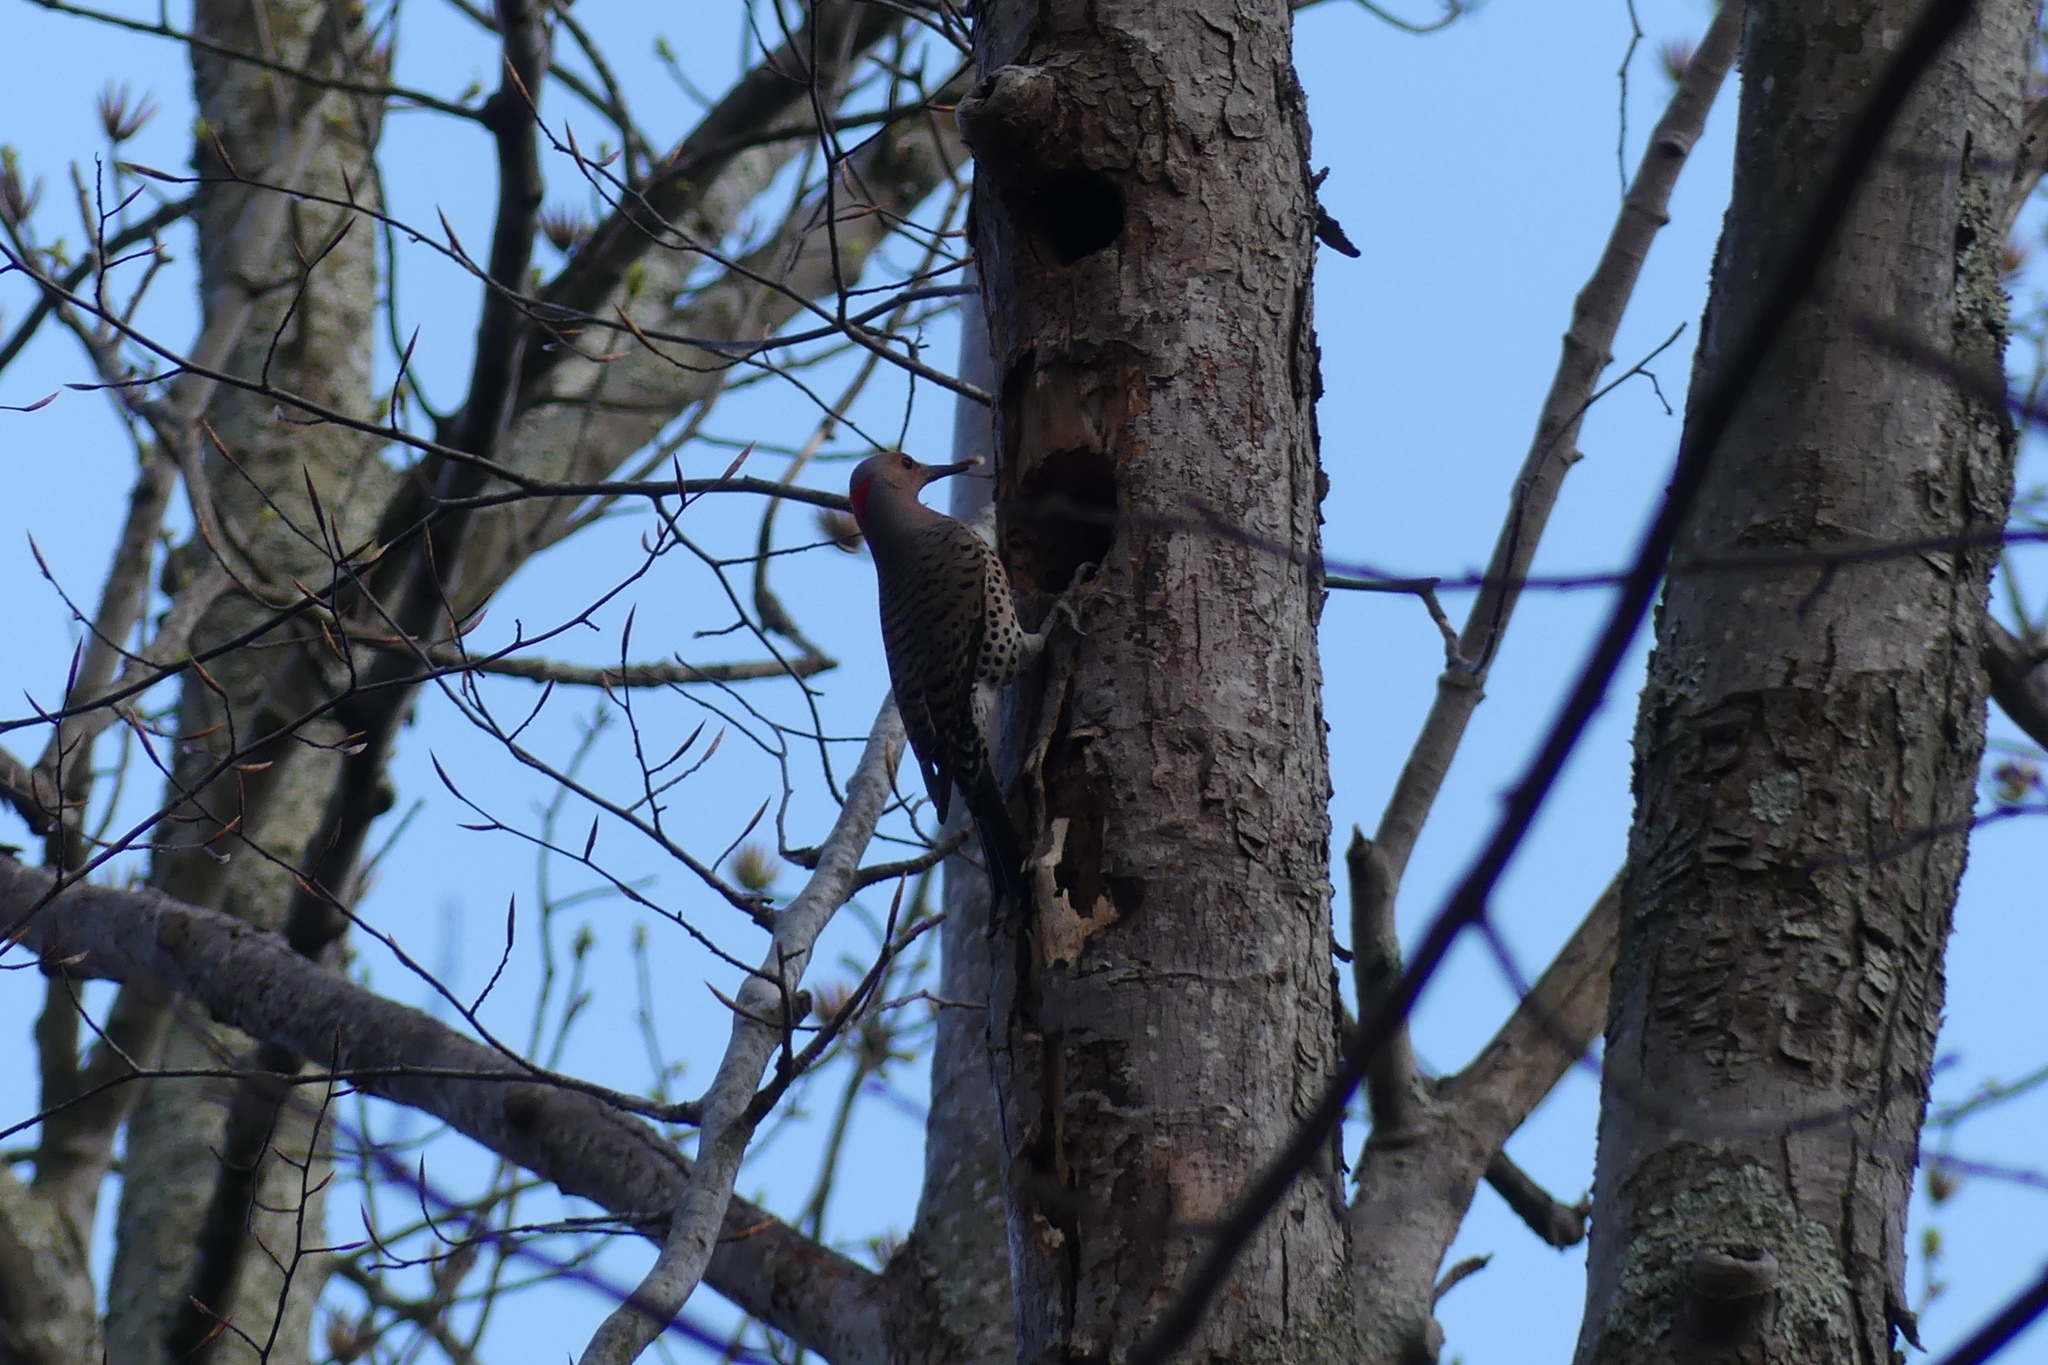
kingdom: Animalia
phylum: Chordata
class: Aves
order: Piciformes
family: Picidae
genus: Colaptes
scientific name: Colaptes auratus
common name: Northern flicker
